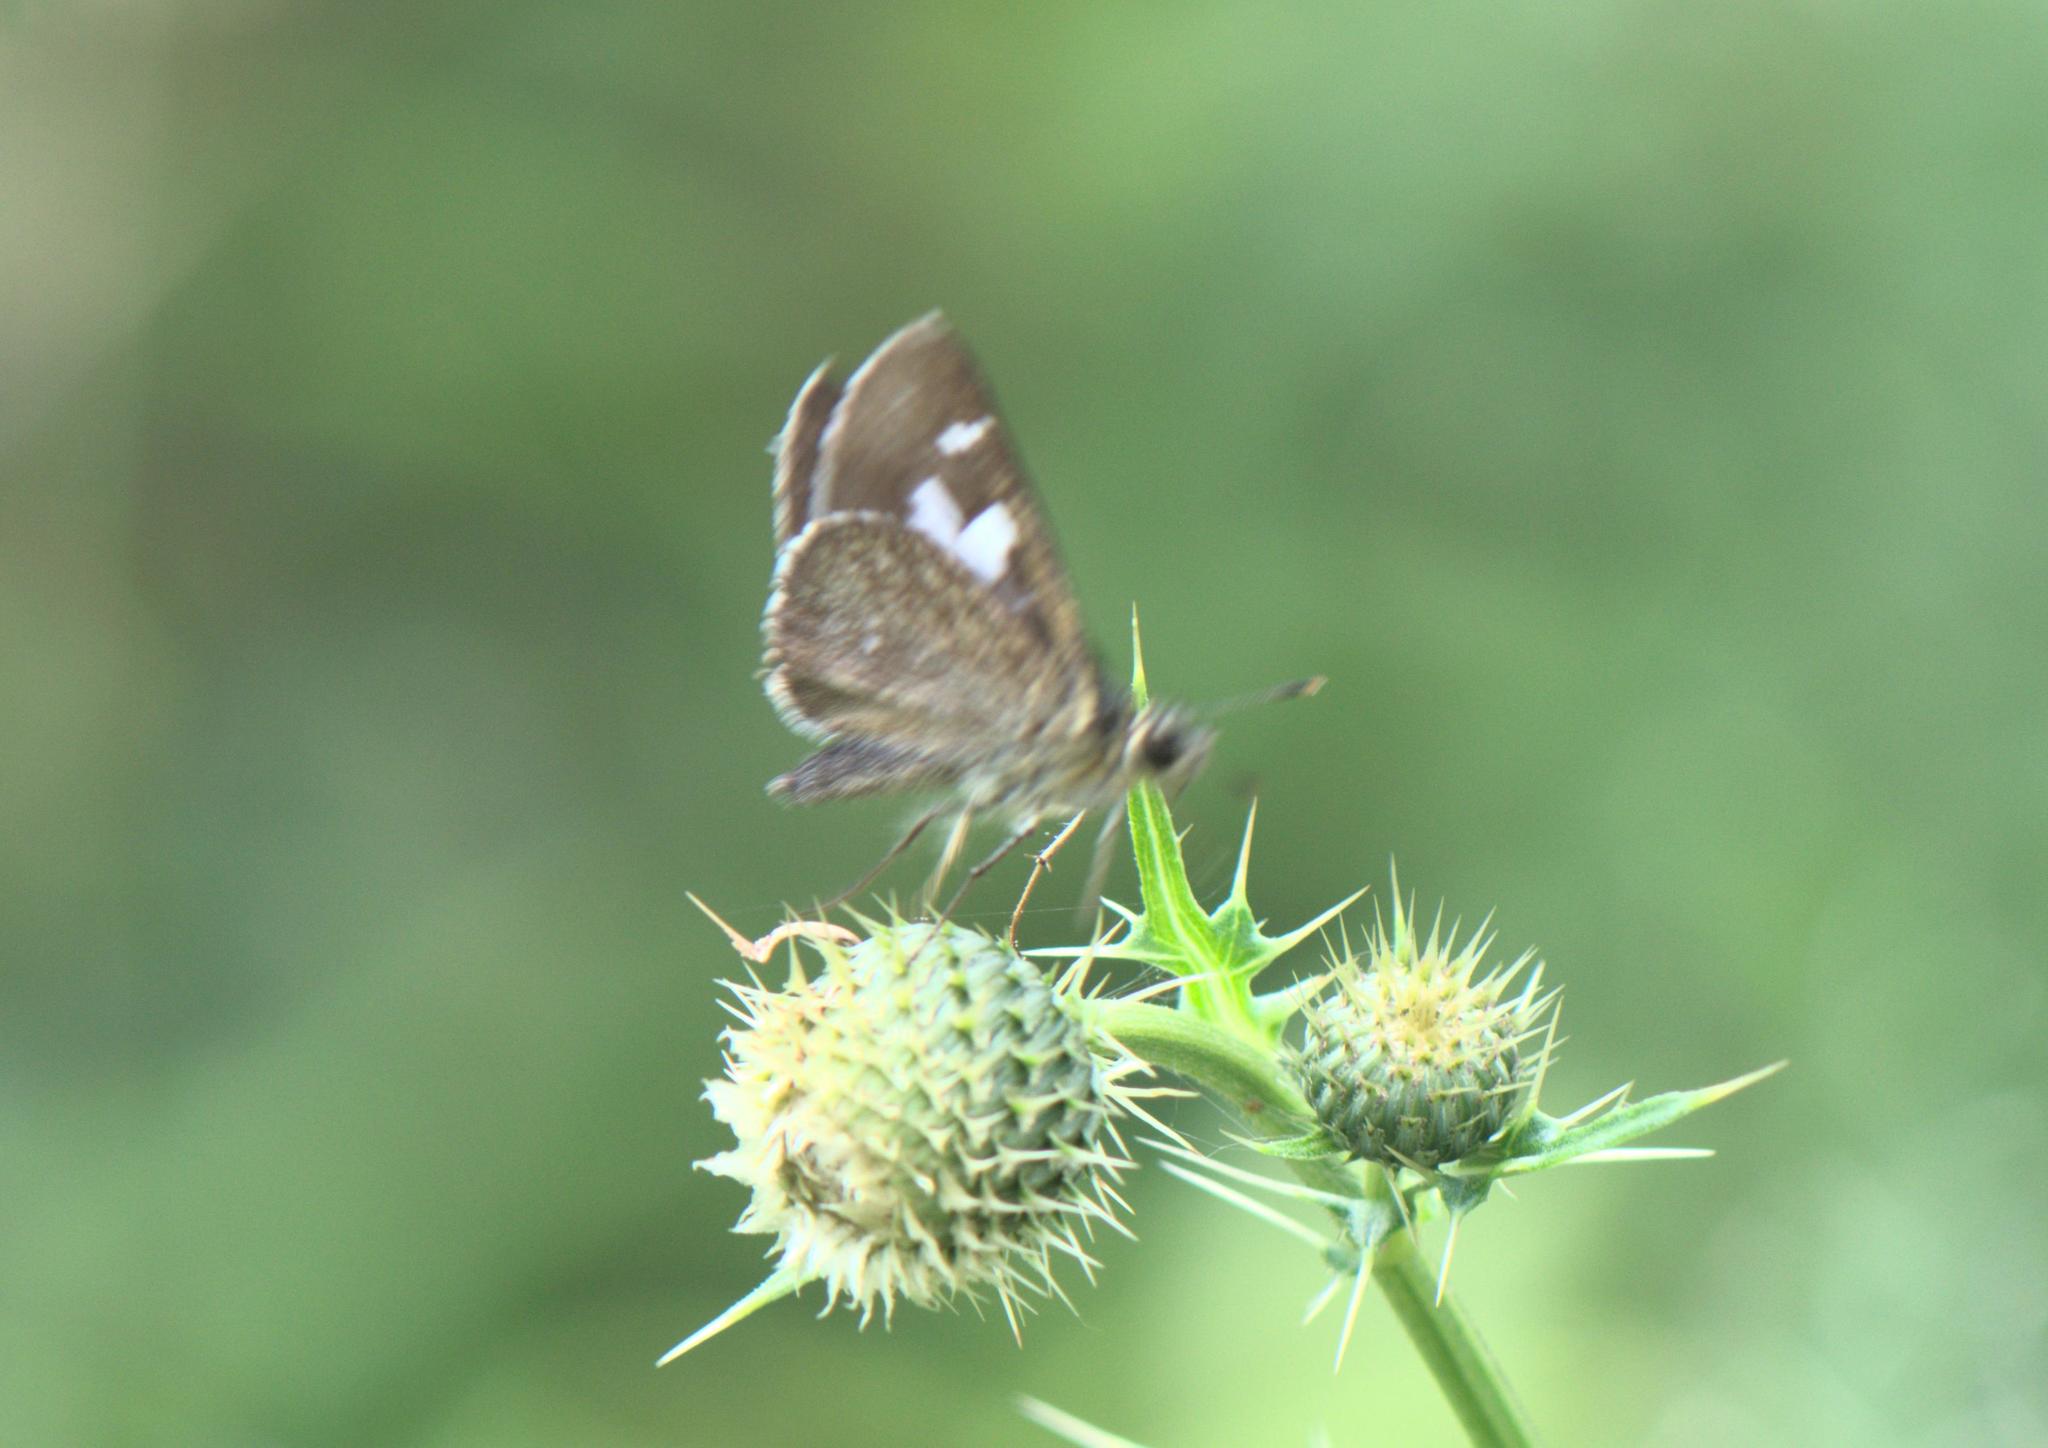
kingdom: Animalia
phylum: Arthropoda
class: Insecta
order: Lepidoptera
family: Hesperiidae
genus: Pedesta
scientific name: Pedesta masuriensis
